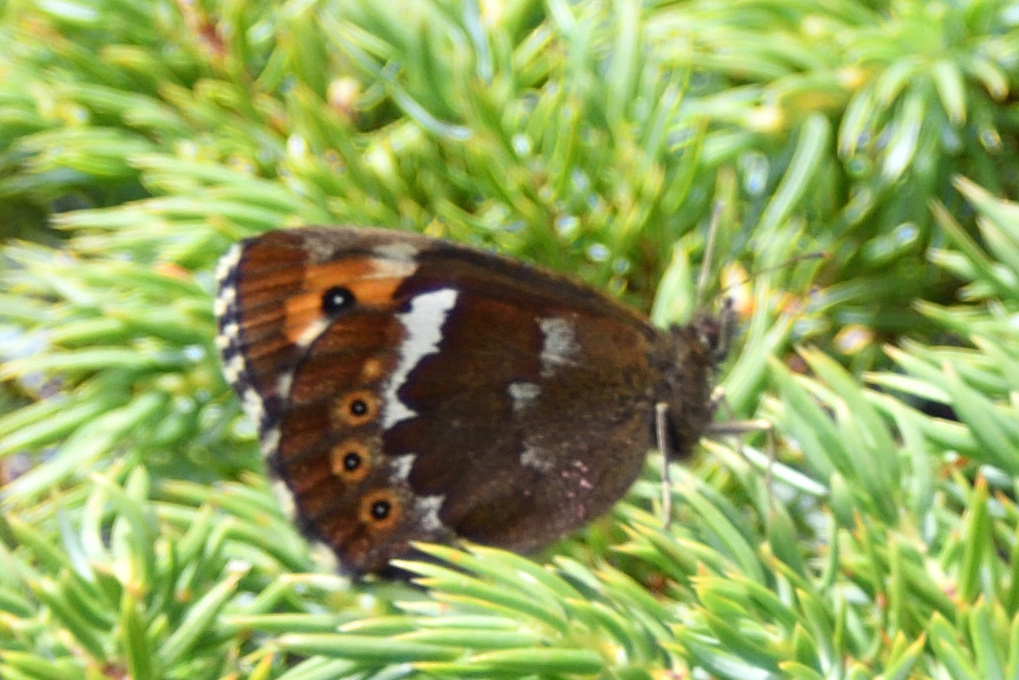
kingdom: Animalia
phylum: Arthropoda
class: Insecta
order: Lepidoptera
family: Nymphalidae
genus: Erebia
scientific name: Erebia ligea
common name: Arran brown
